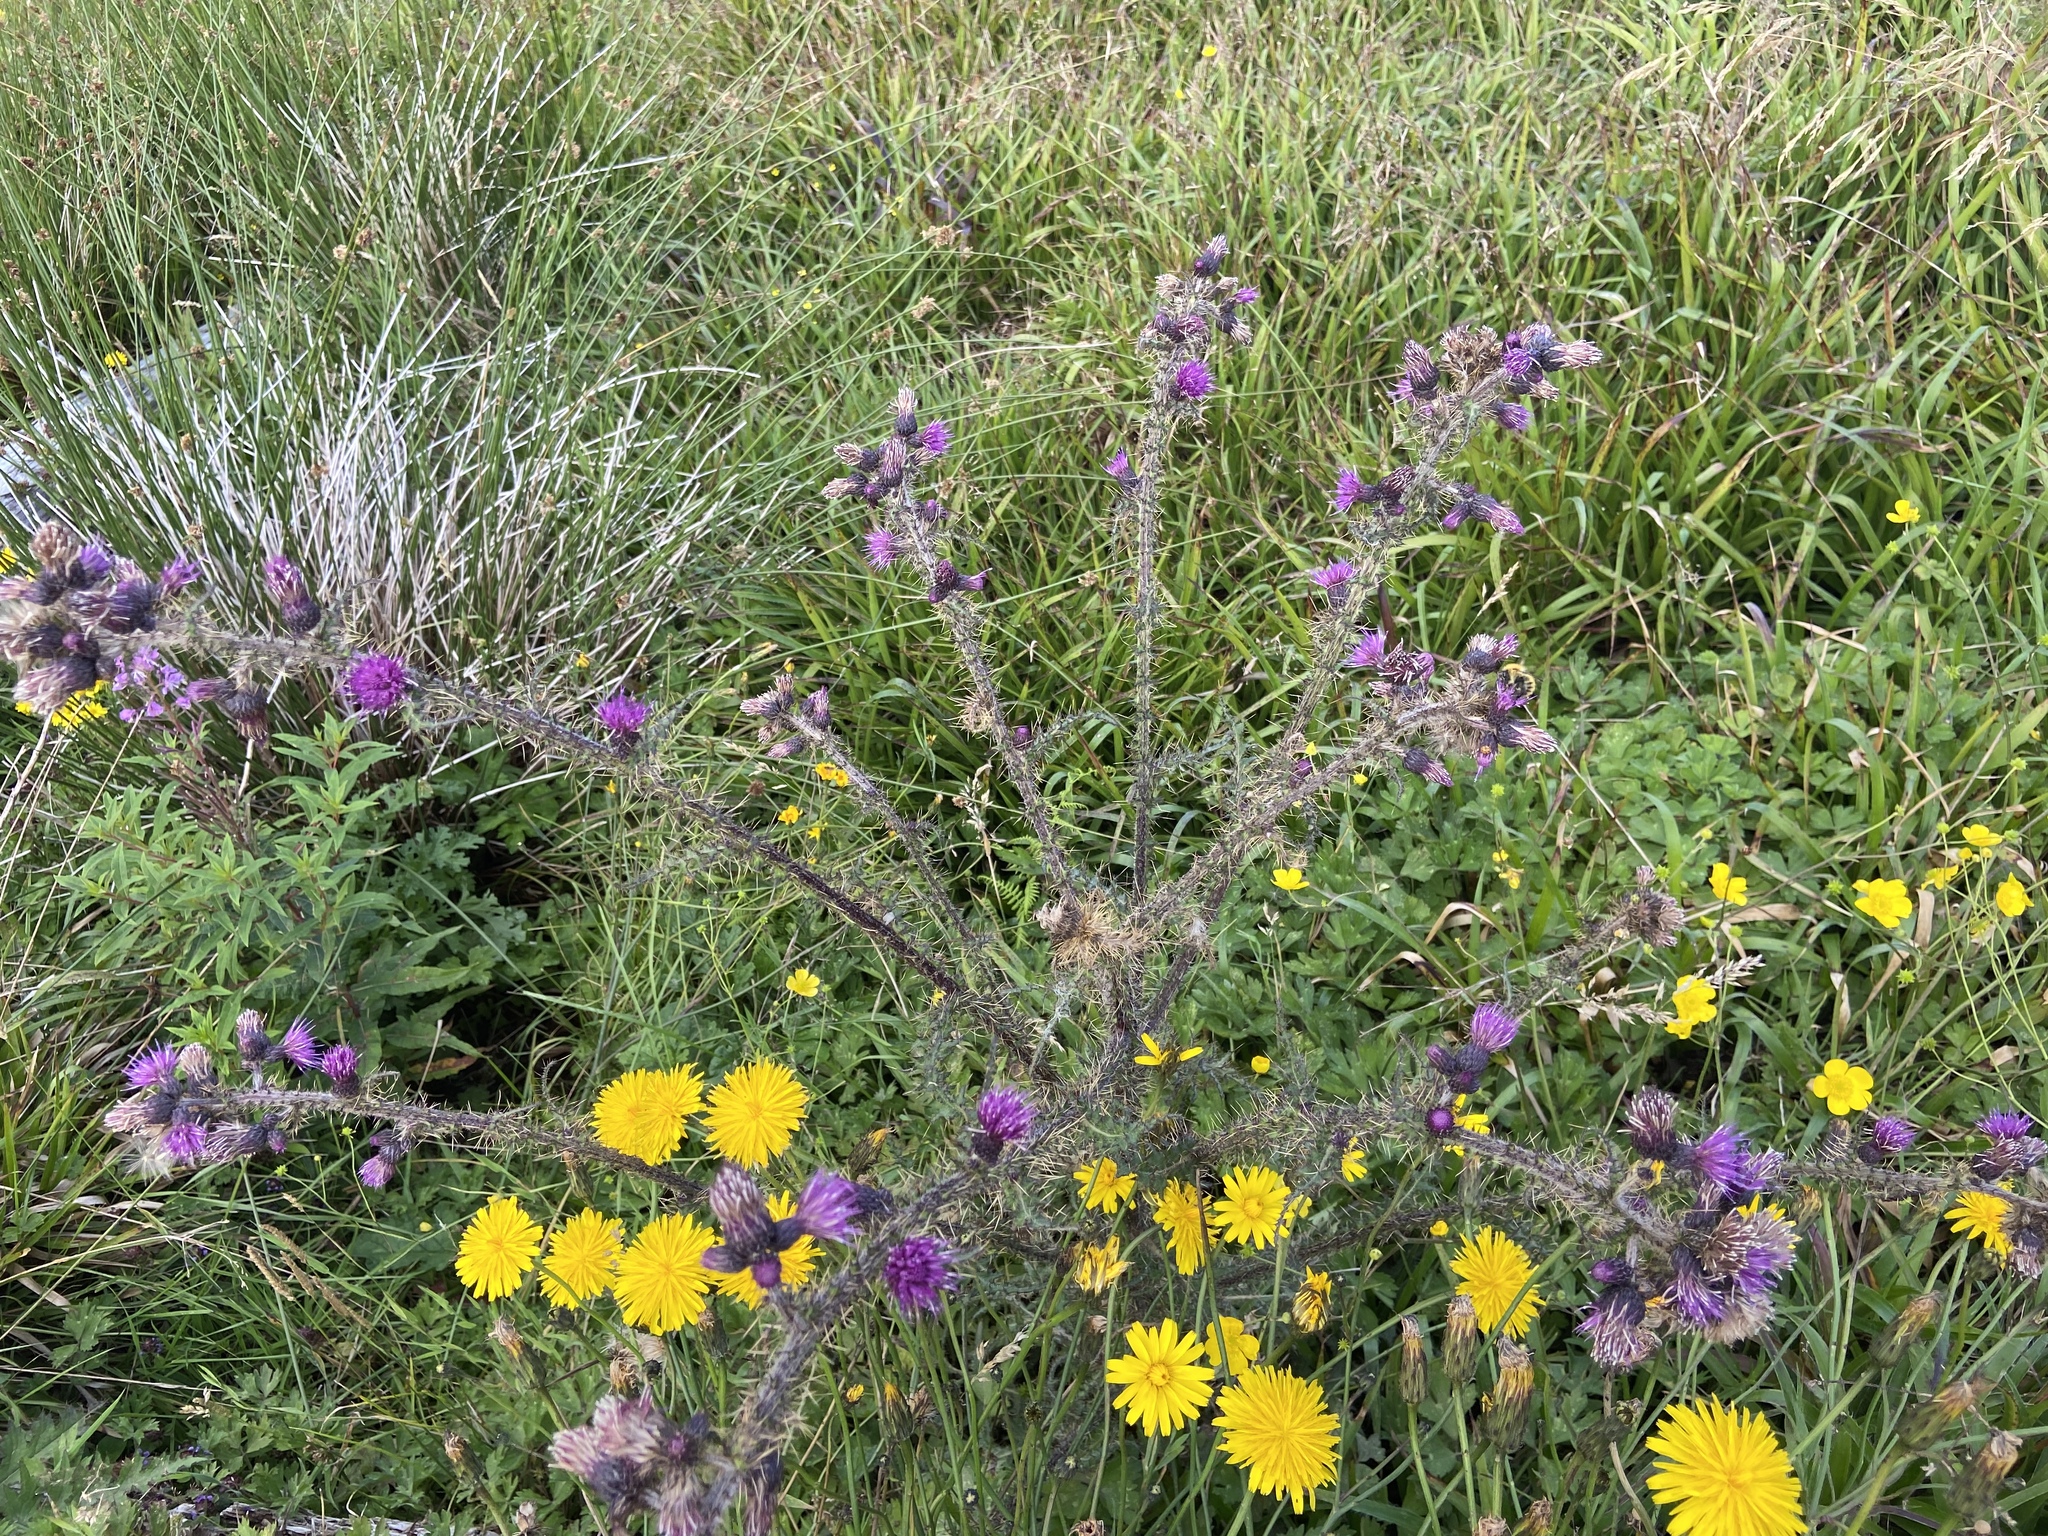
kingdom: Plantae
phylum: Tracheophyta
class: Magnoliopsida
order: Asterales
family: Asteraceae
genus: Cirsium
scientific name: Cirsium palustre
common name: Marsh thistle
